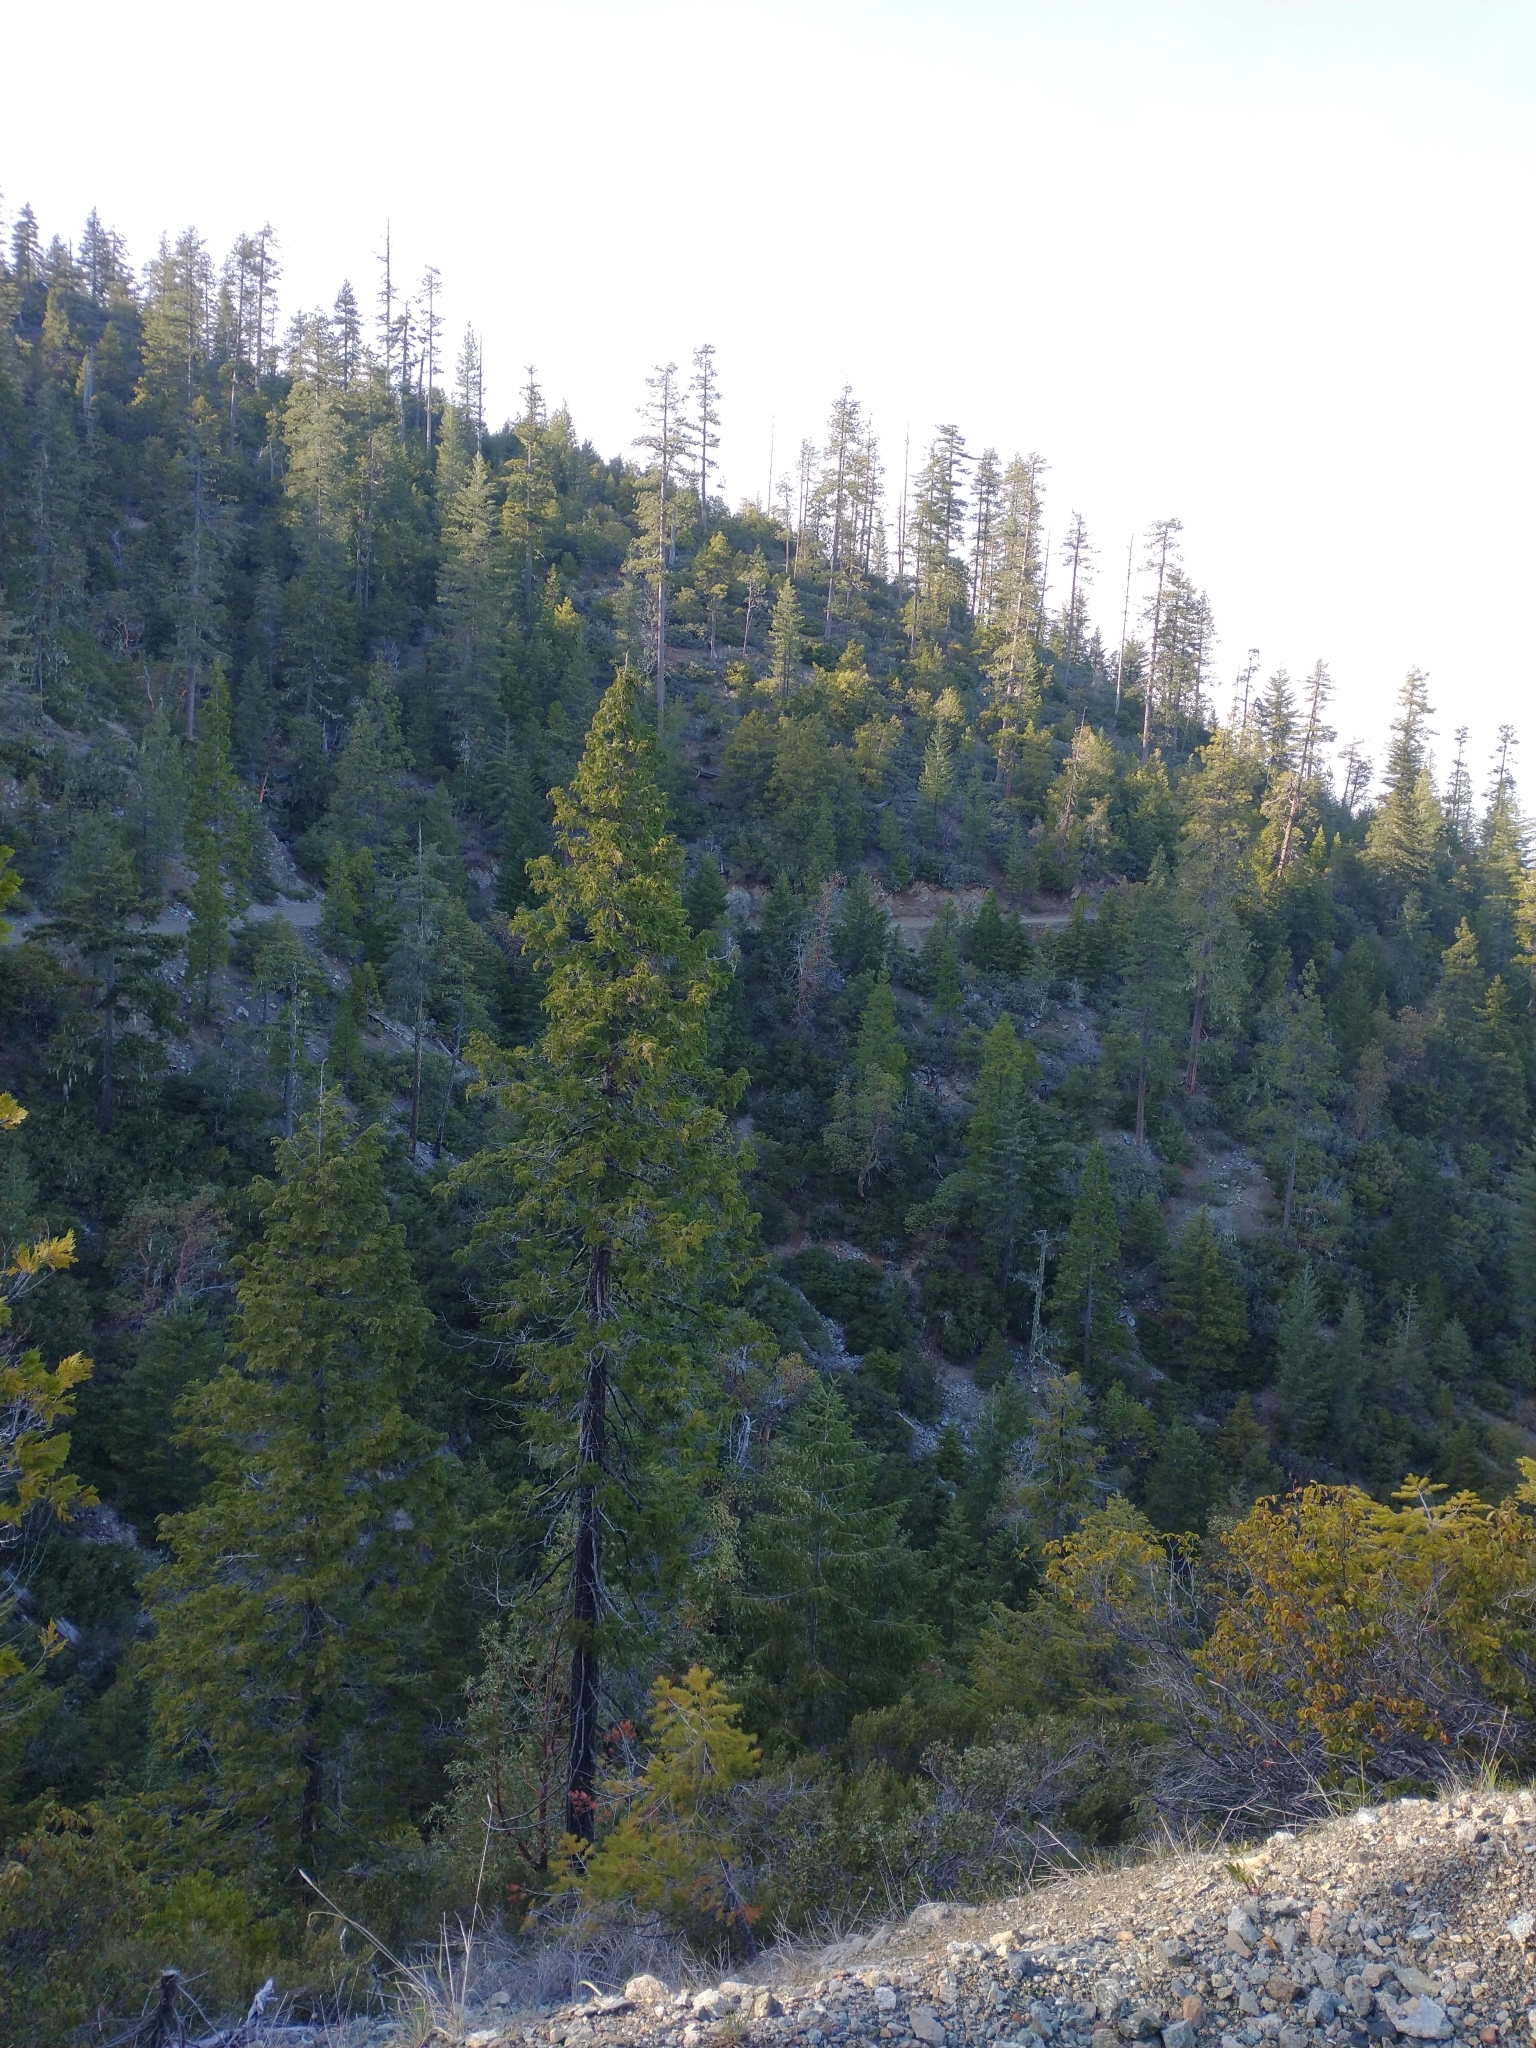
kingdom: Plantae
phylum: Tracheophyta
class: Pinopsida
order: Pinales
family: Cupressaceae
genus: Chamaecyparis
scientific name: Chamaecyparis lawsoniana
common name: Lawson's cypress
